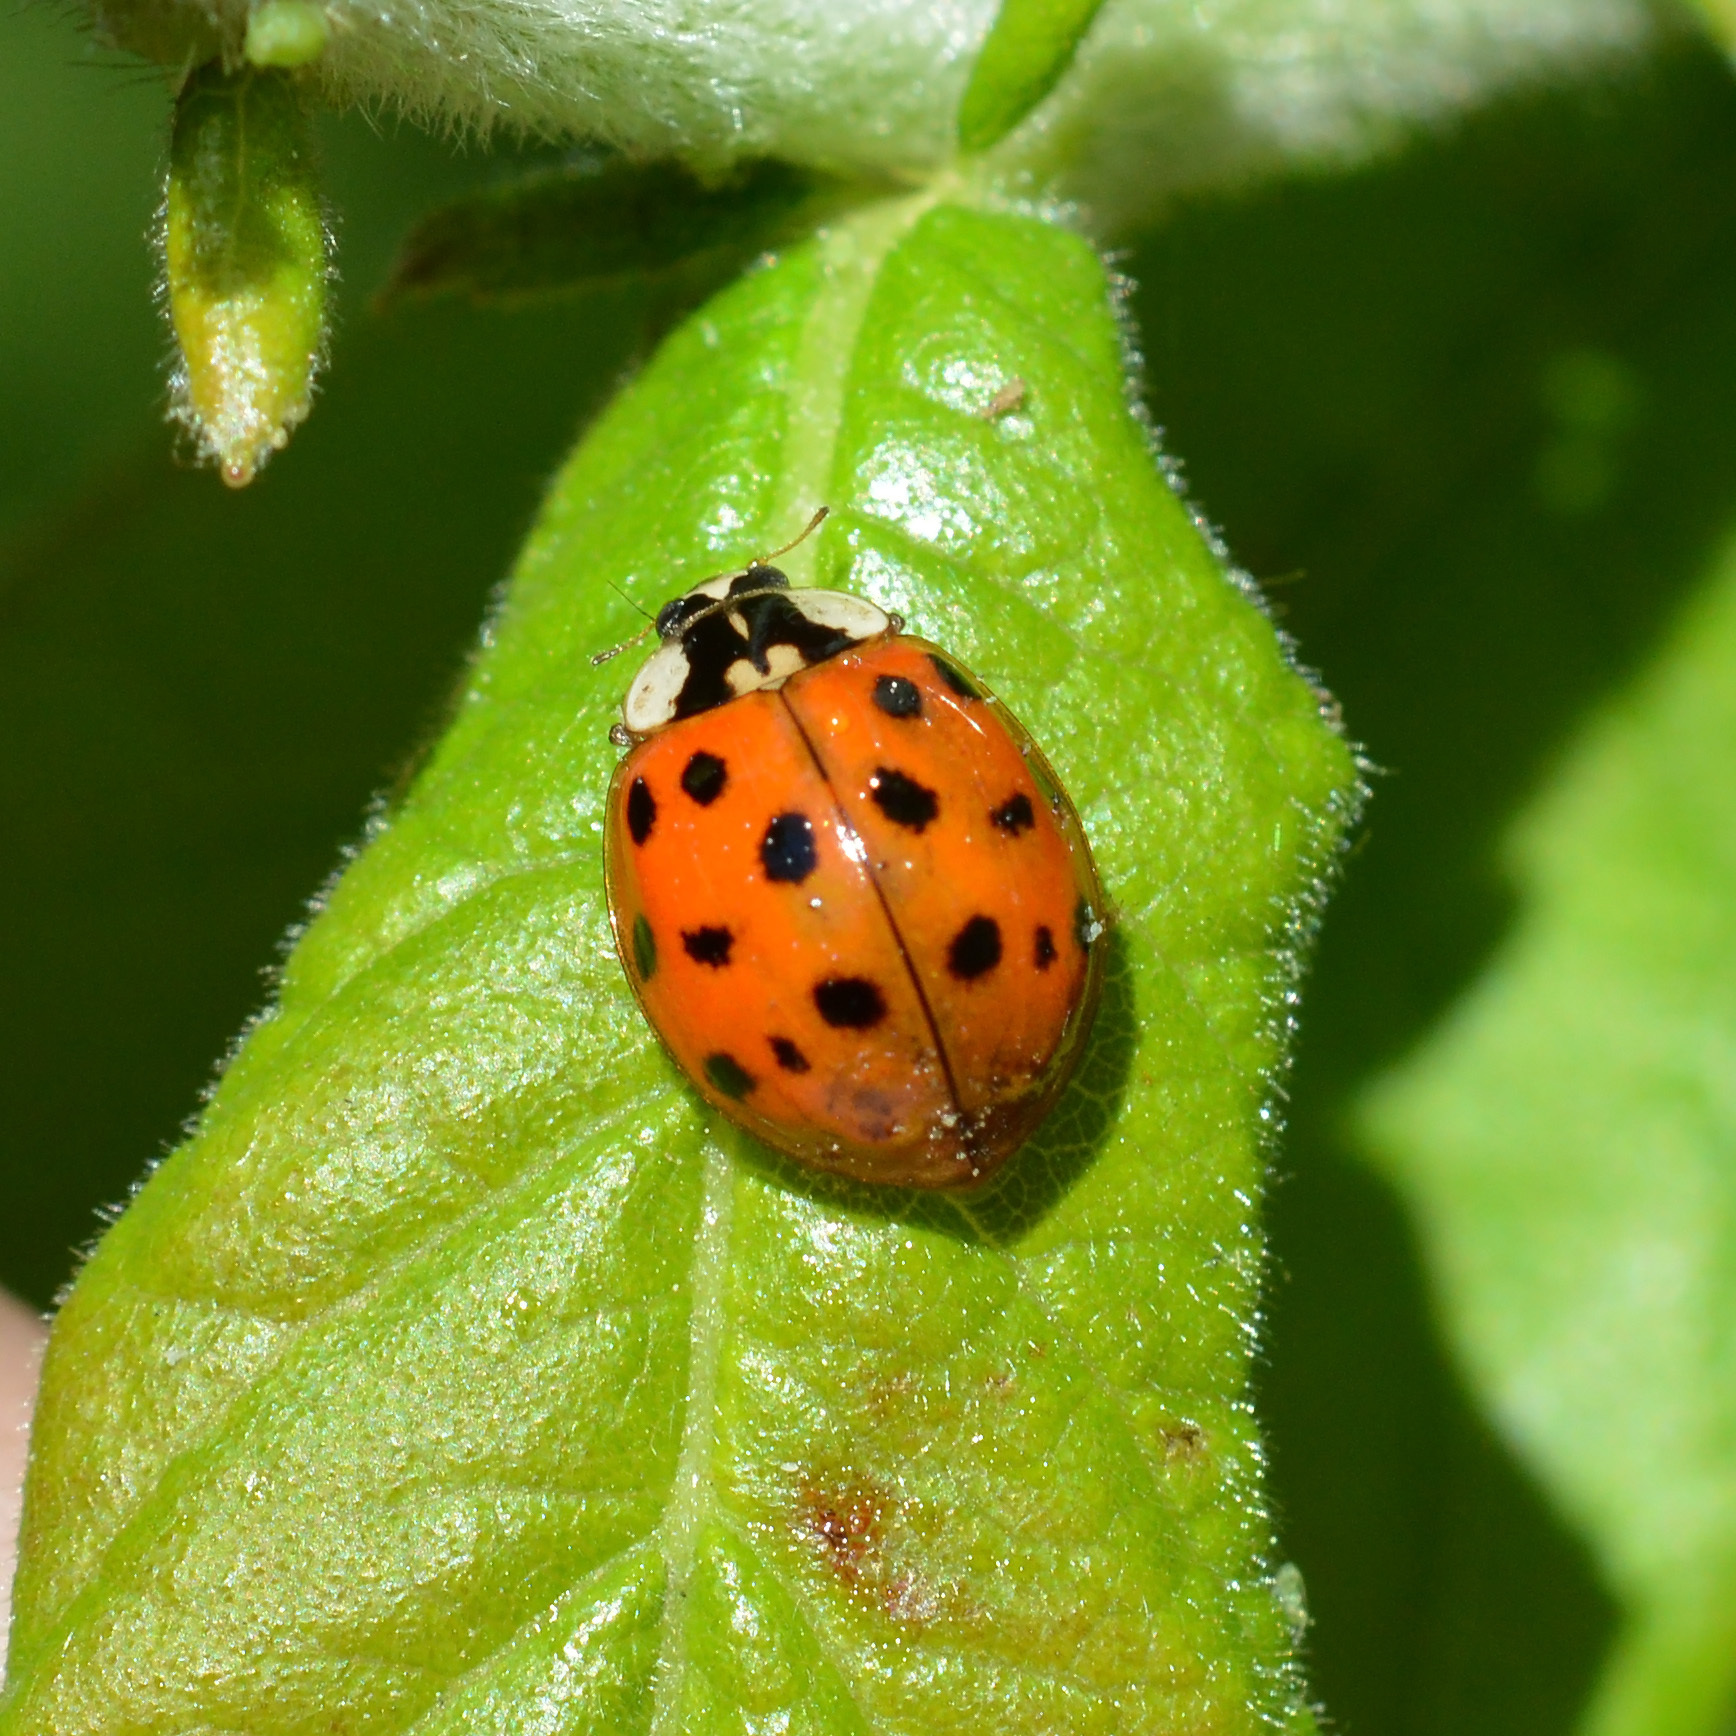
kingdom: Animalia
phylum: Arthropoda
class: Insecta
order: Coleoptera
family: Coccinellidae
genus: Harmonia
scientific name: Harmonia axyridis
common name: Harlequin ladybird
